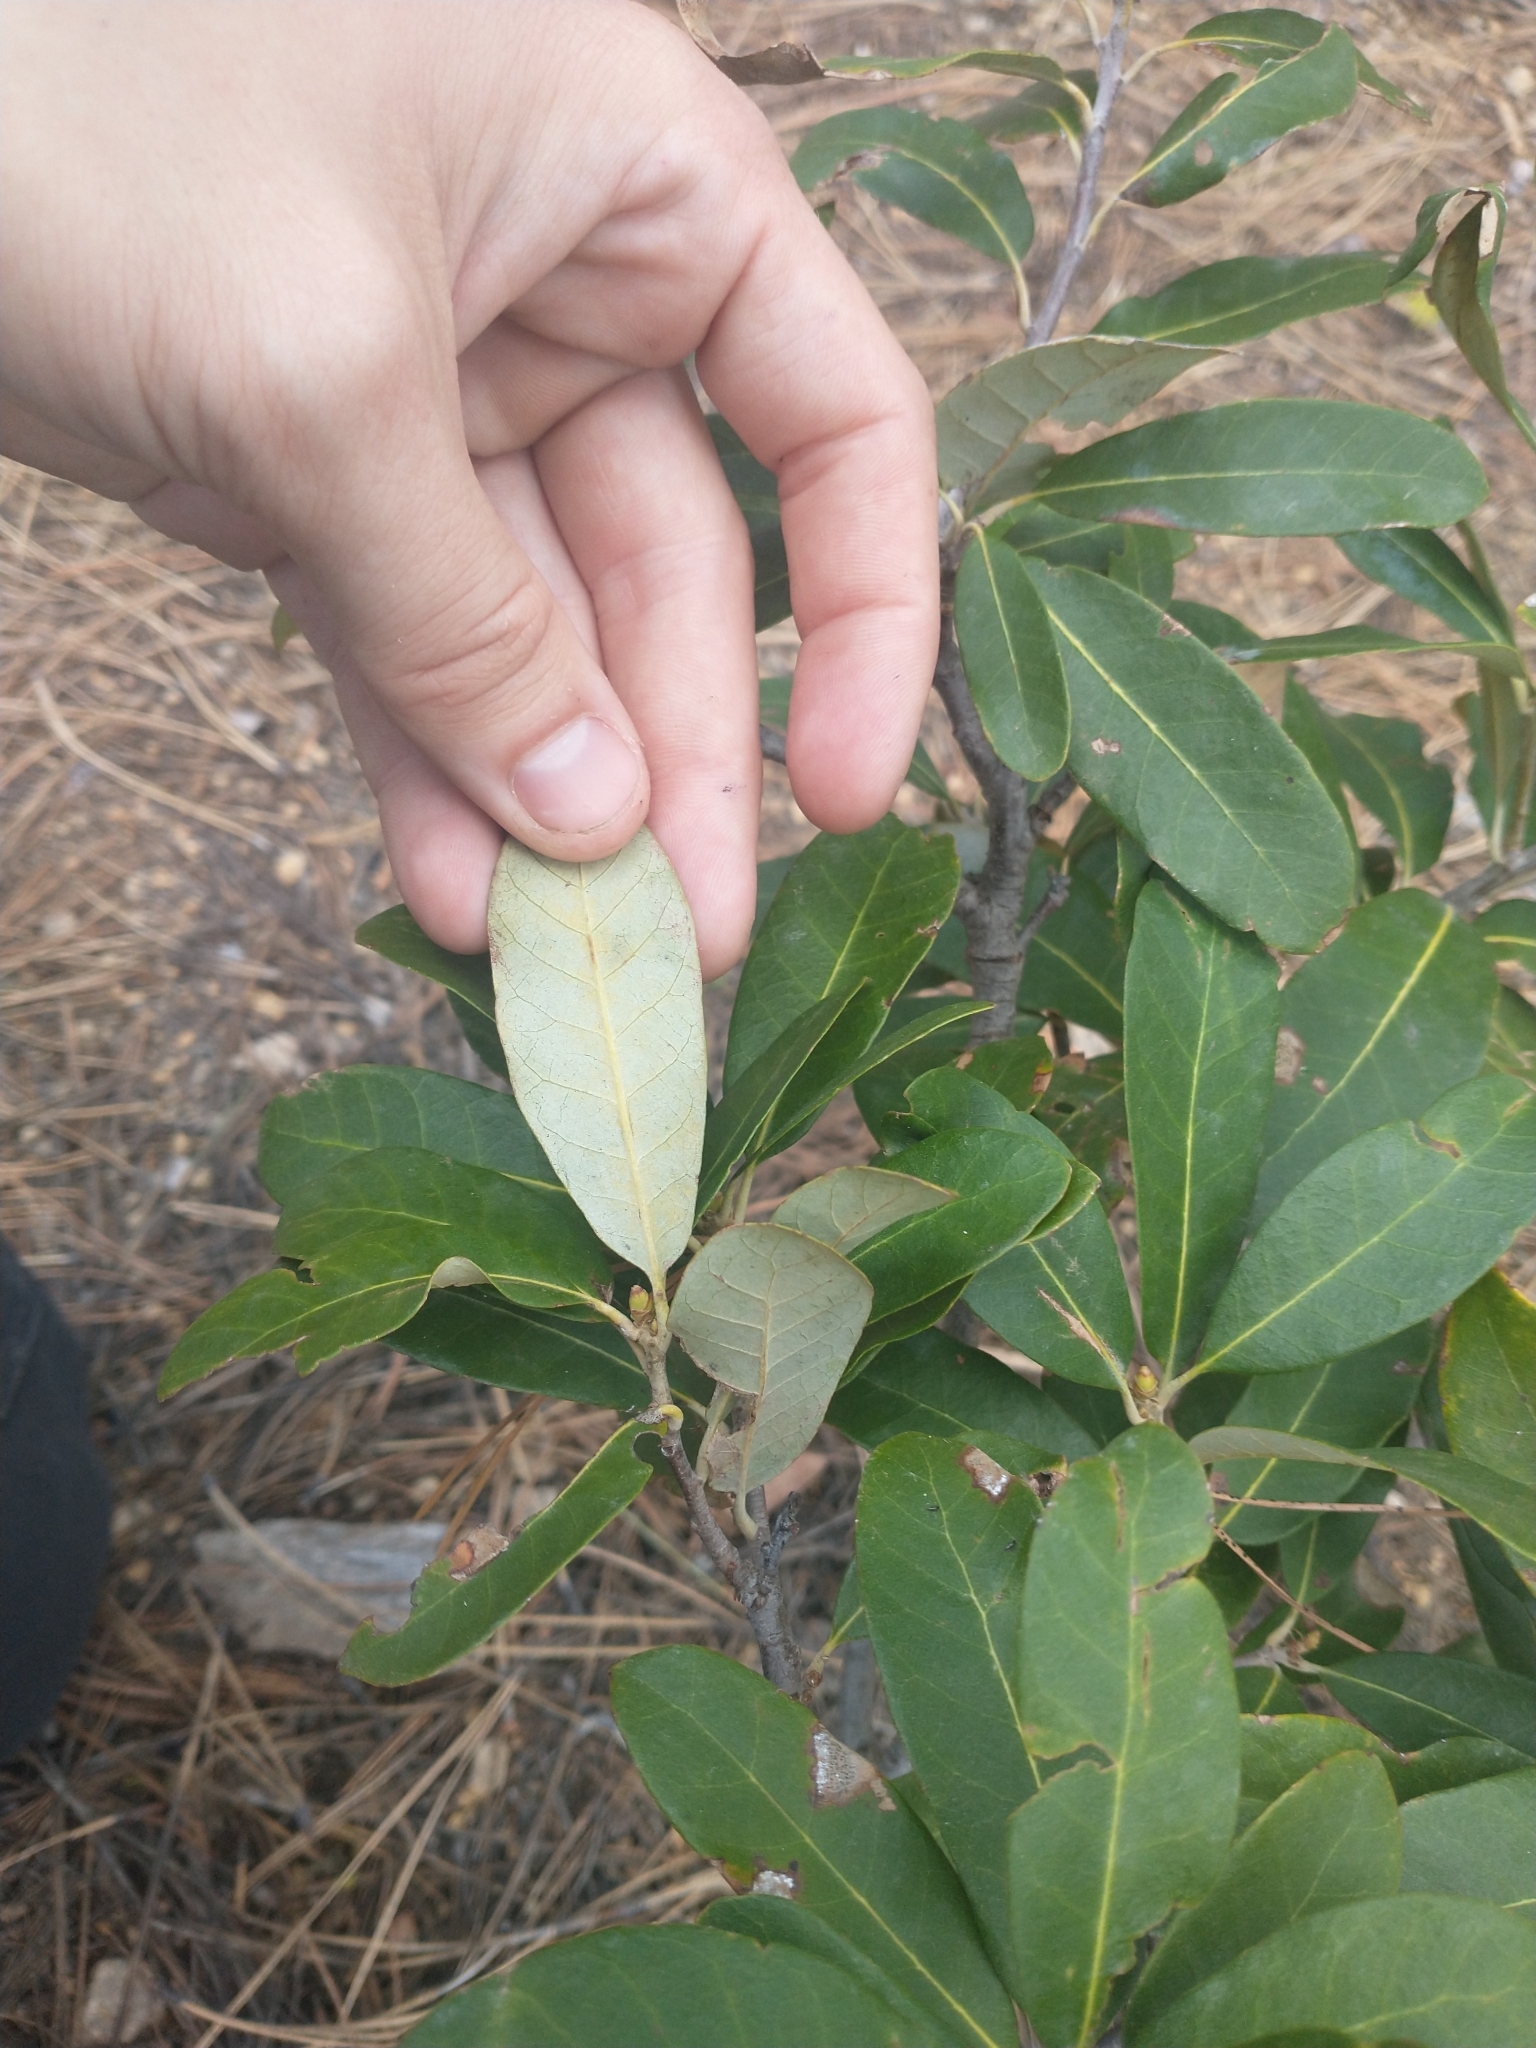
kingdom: Plantae
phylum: Tracheophyta
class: Magnoliopsida
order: Fagales
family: Fagaceae
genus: Chrysolepis
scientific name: Chrysolepis sempervirens
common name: Bush chinquapin
